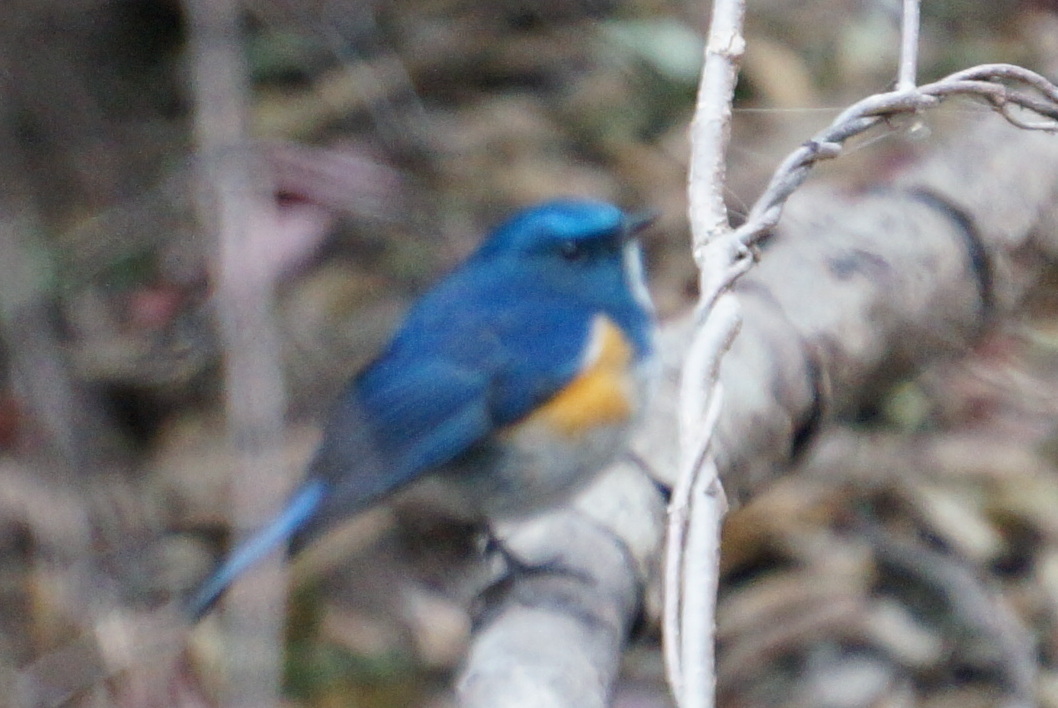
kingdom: Animalia
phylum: Chordata
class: Aves
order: Passeriformes
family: Muscicapidae
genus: Tarsiger
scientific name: Tarsiger rufilatus
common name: Himalayan bluetail
